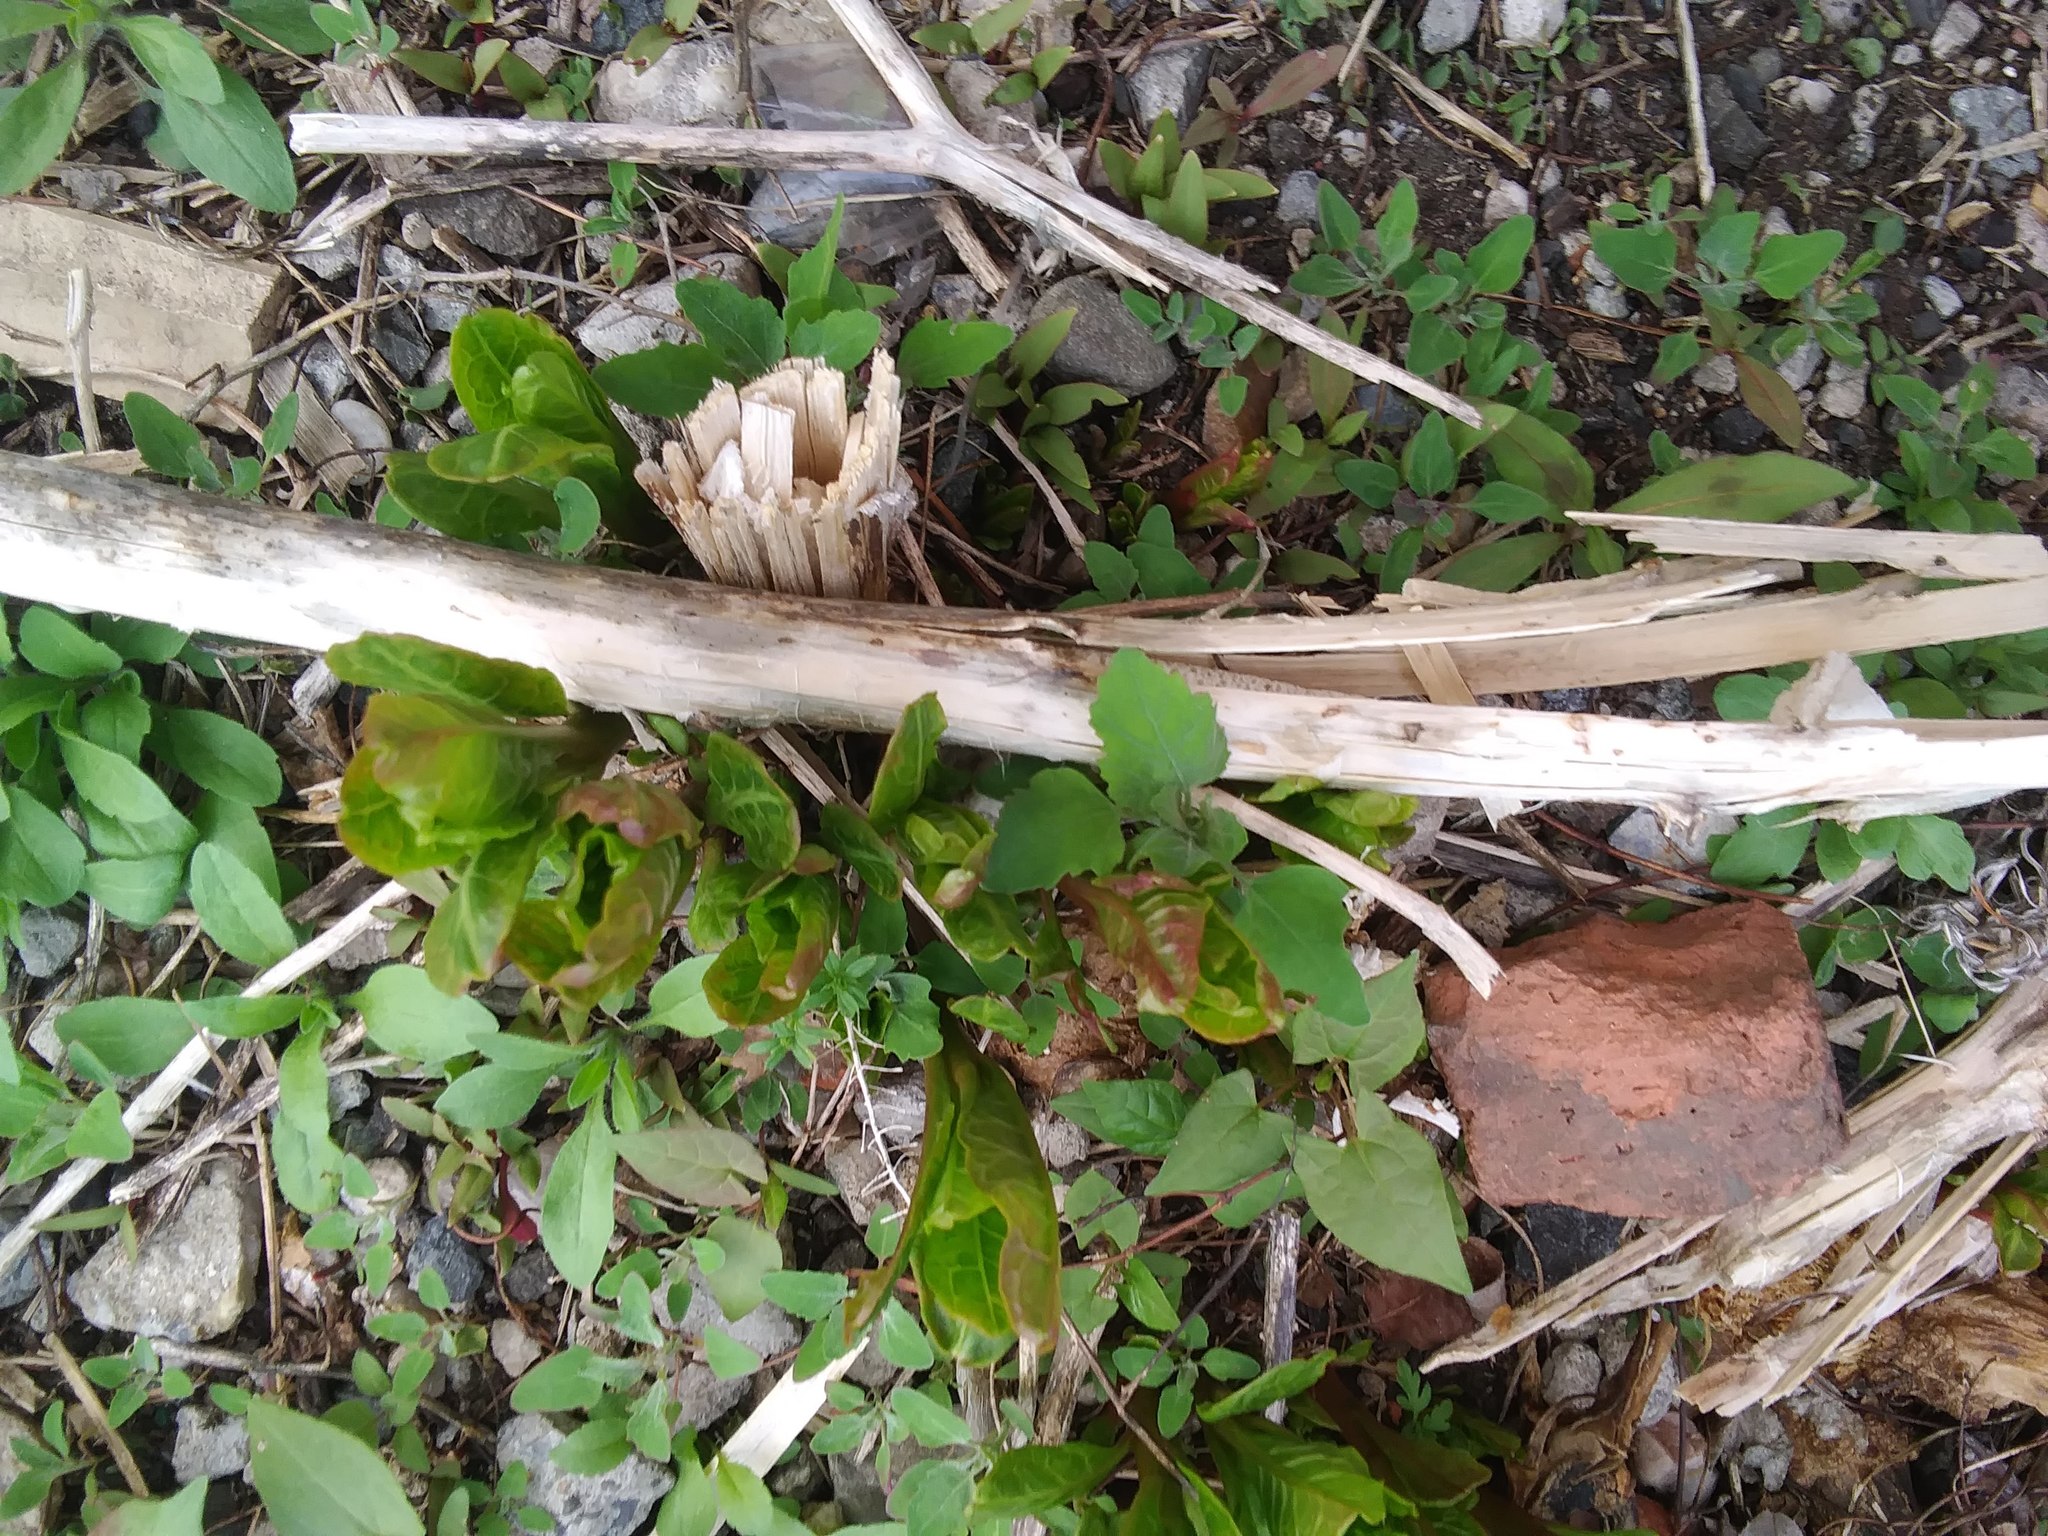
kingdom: Plantae
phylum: Tracheophyta
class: Magnoliopsida
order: Caryophyllales
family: Phytolaccaceae
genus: Phytolacca
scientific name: Phytolacca americana
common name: American pokeweed
